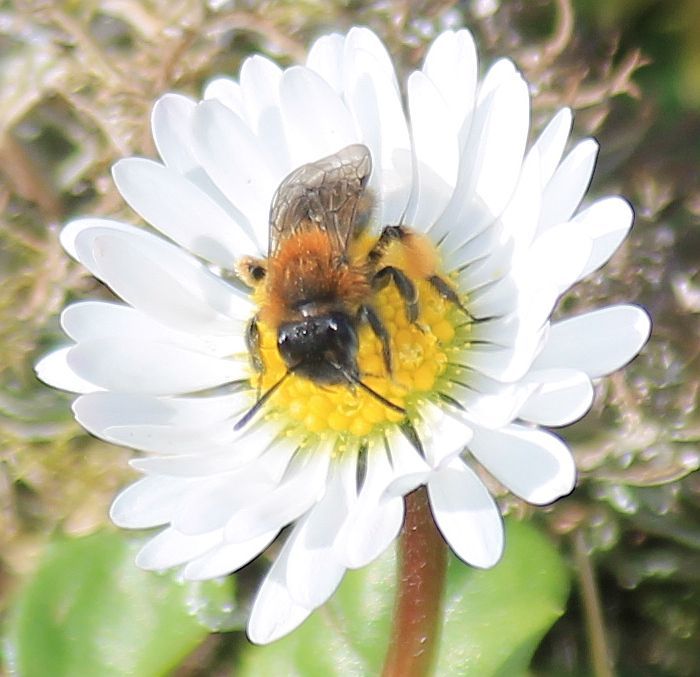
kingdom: Animalia
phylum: Arthropoda
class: Insecta
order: Hymenoptera
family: Andrenidae
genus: Andrena
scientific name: Andrena bicolor
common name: Gwynne's mining bee
